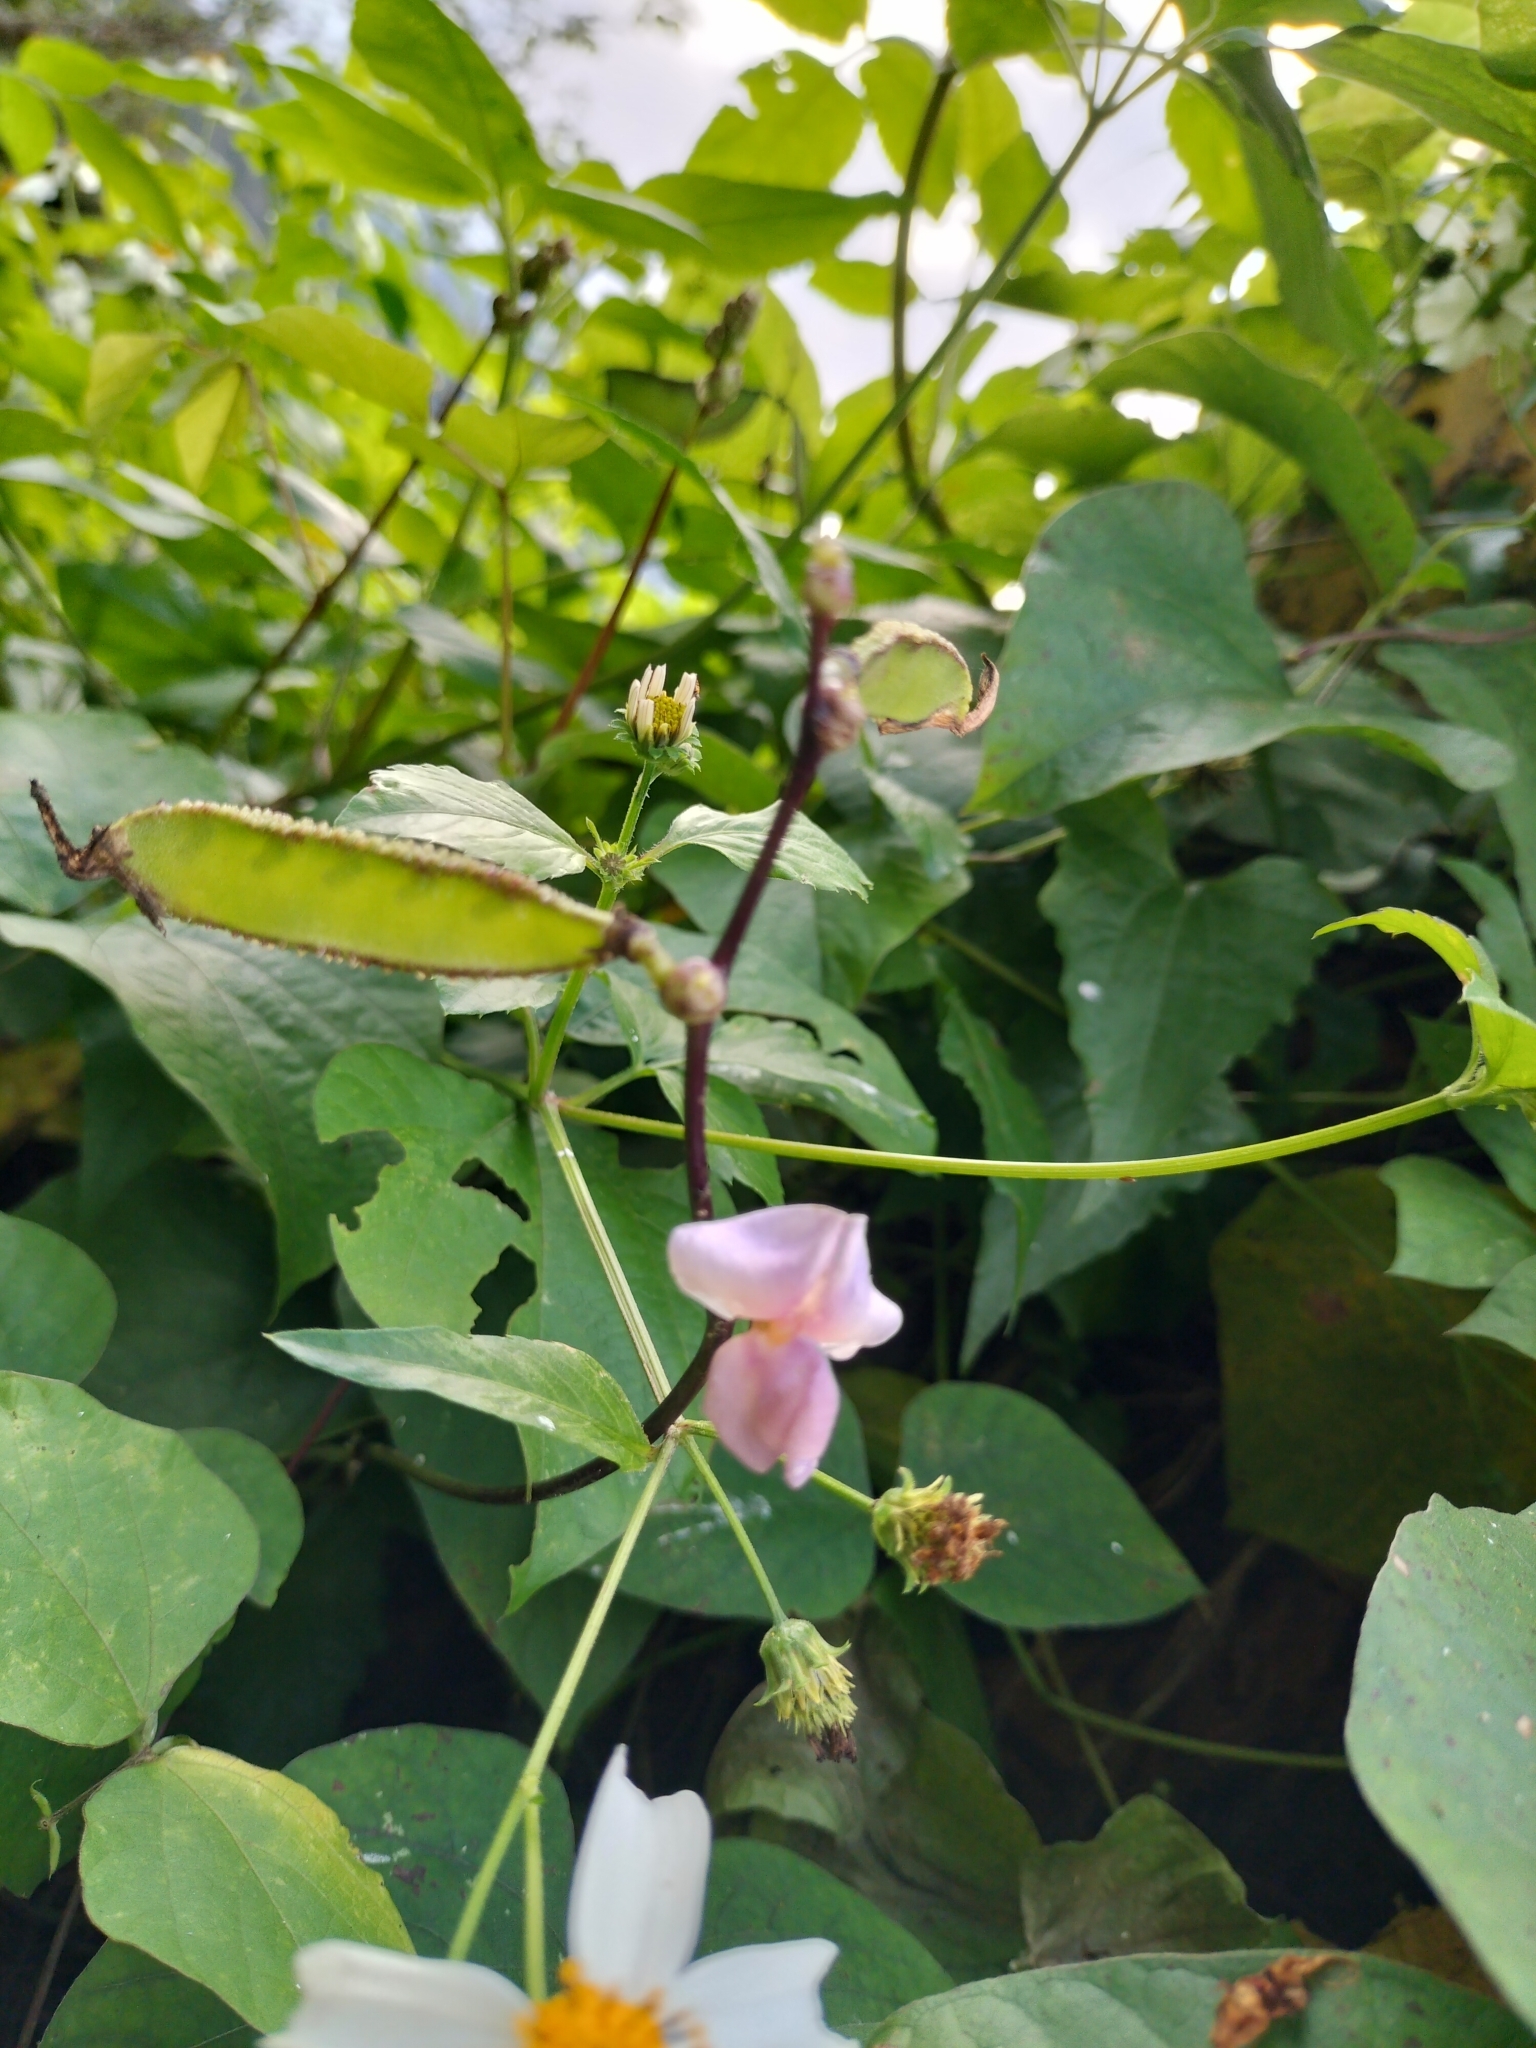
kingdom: Plantae
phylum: Tracheophyta
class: Magnoliopsida
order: Fabales
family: Fabaceae
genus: Lablab
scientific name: Lablab purpureus
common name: Lablab-bean
